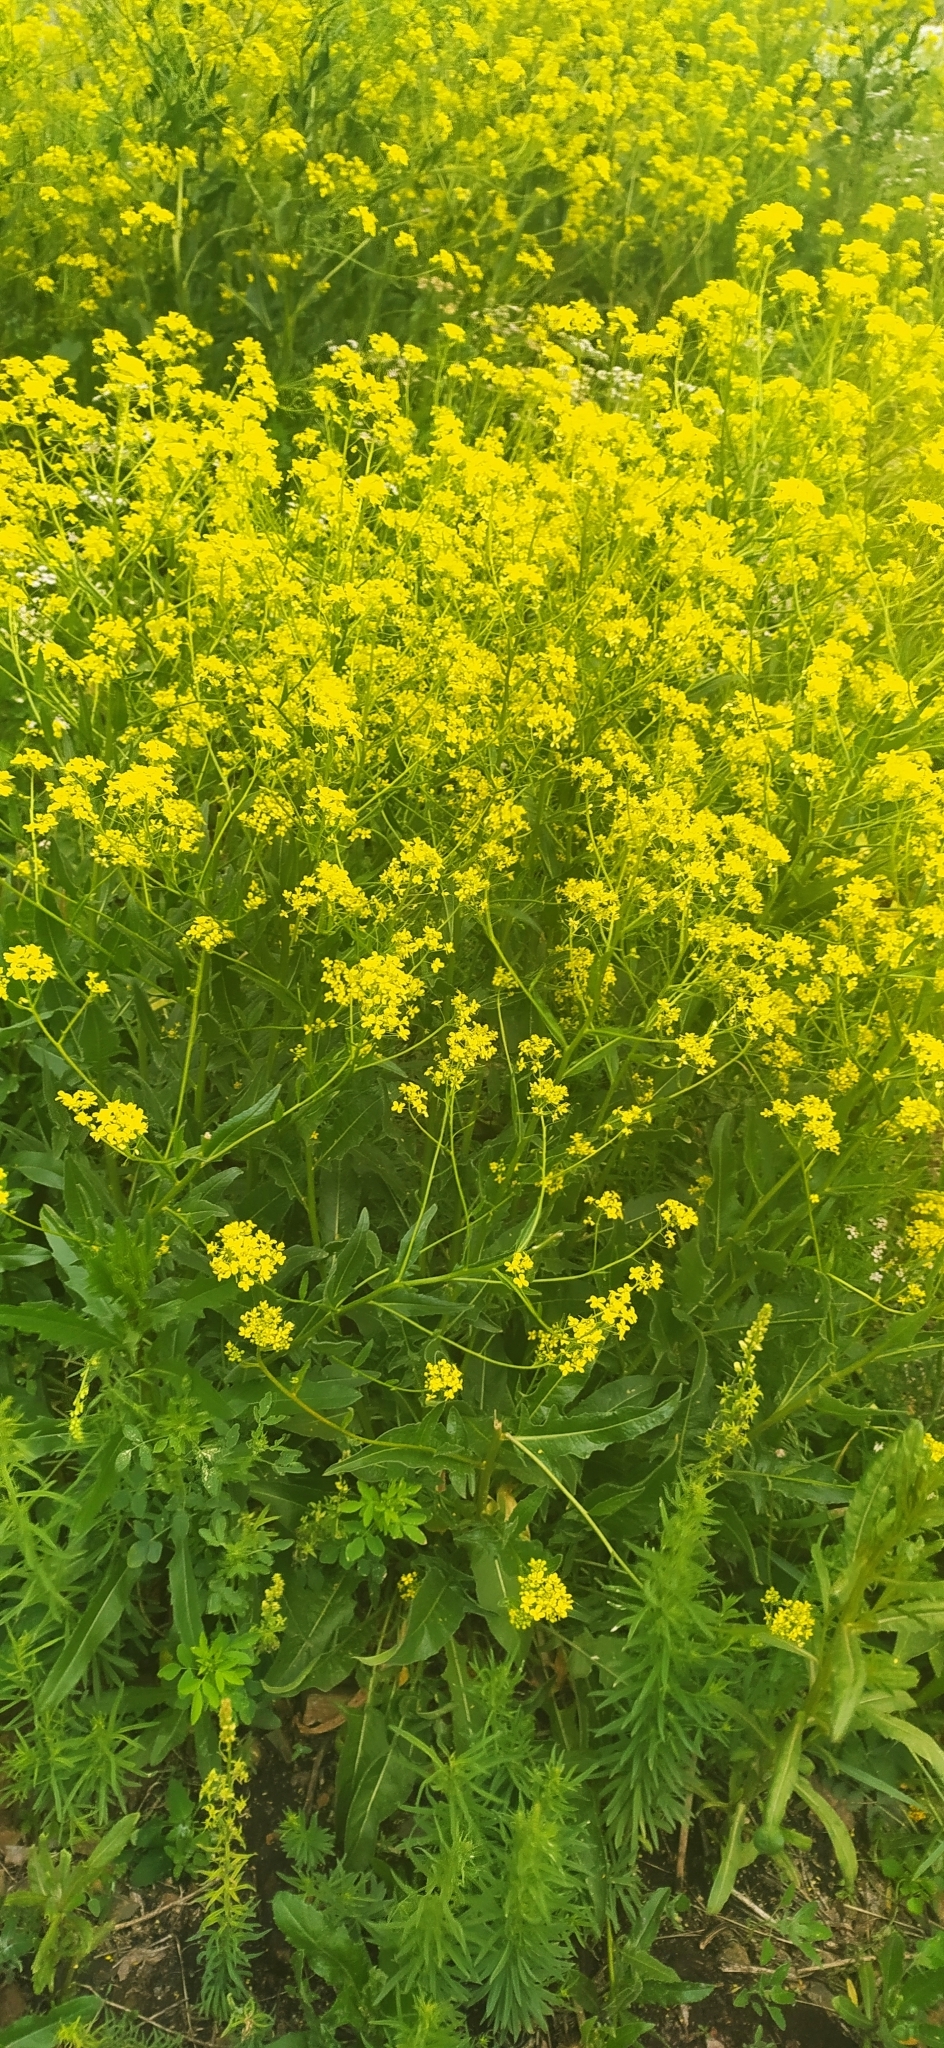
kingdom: Plantae
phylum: Tracheophyta
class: Magnoliopsida
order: Brassicales
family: Brassicaceae
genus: Bunias
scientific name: Bunias orientalis
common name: Warty-cabbage
